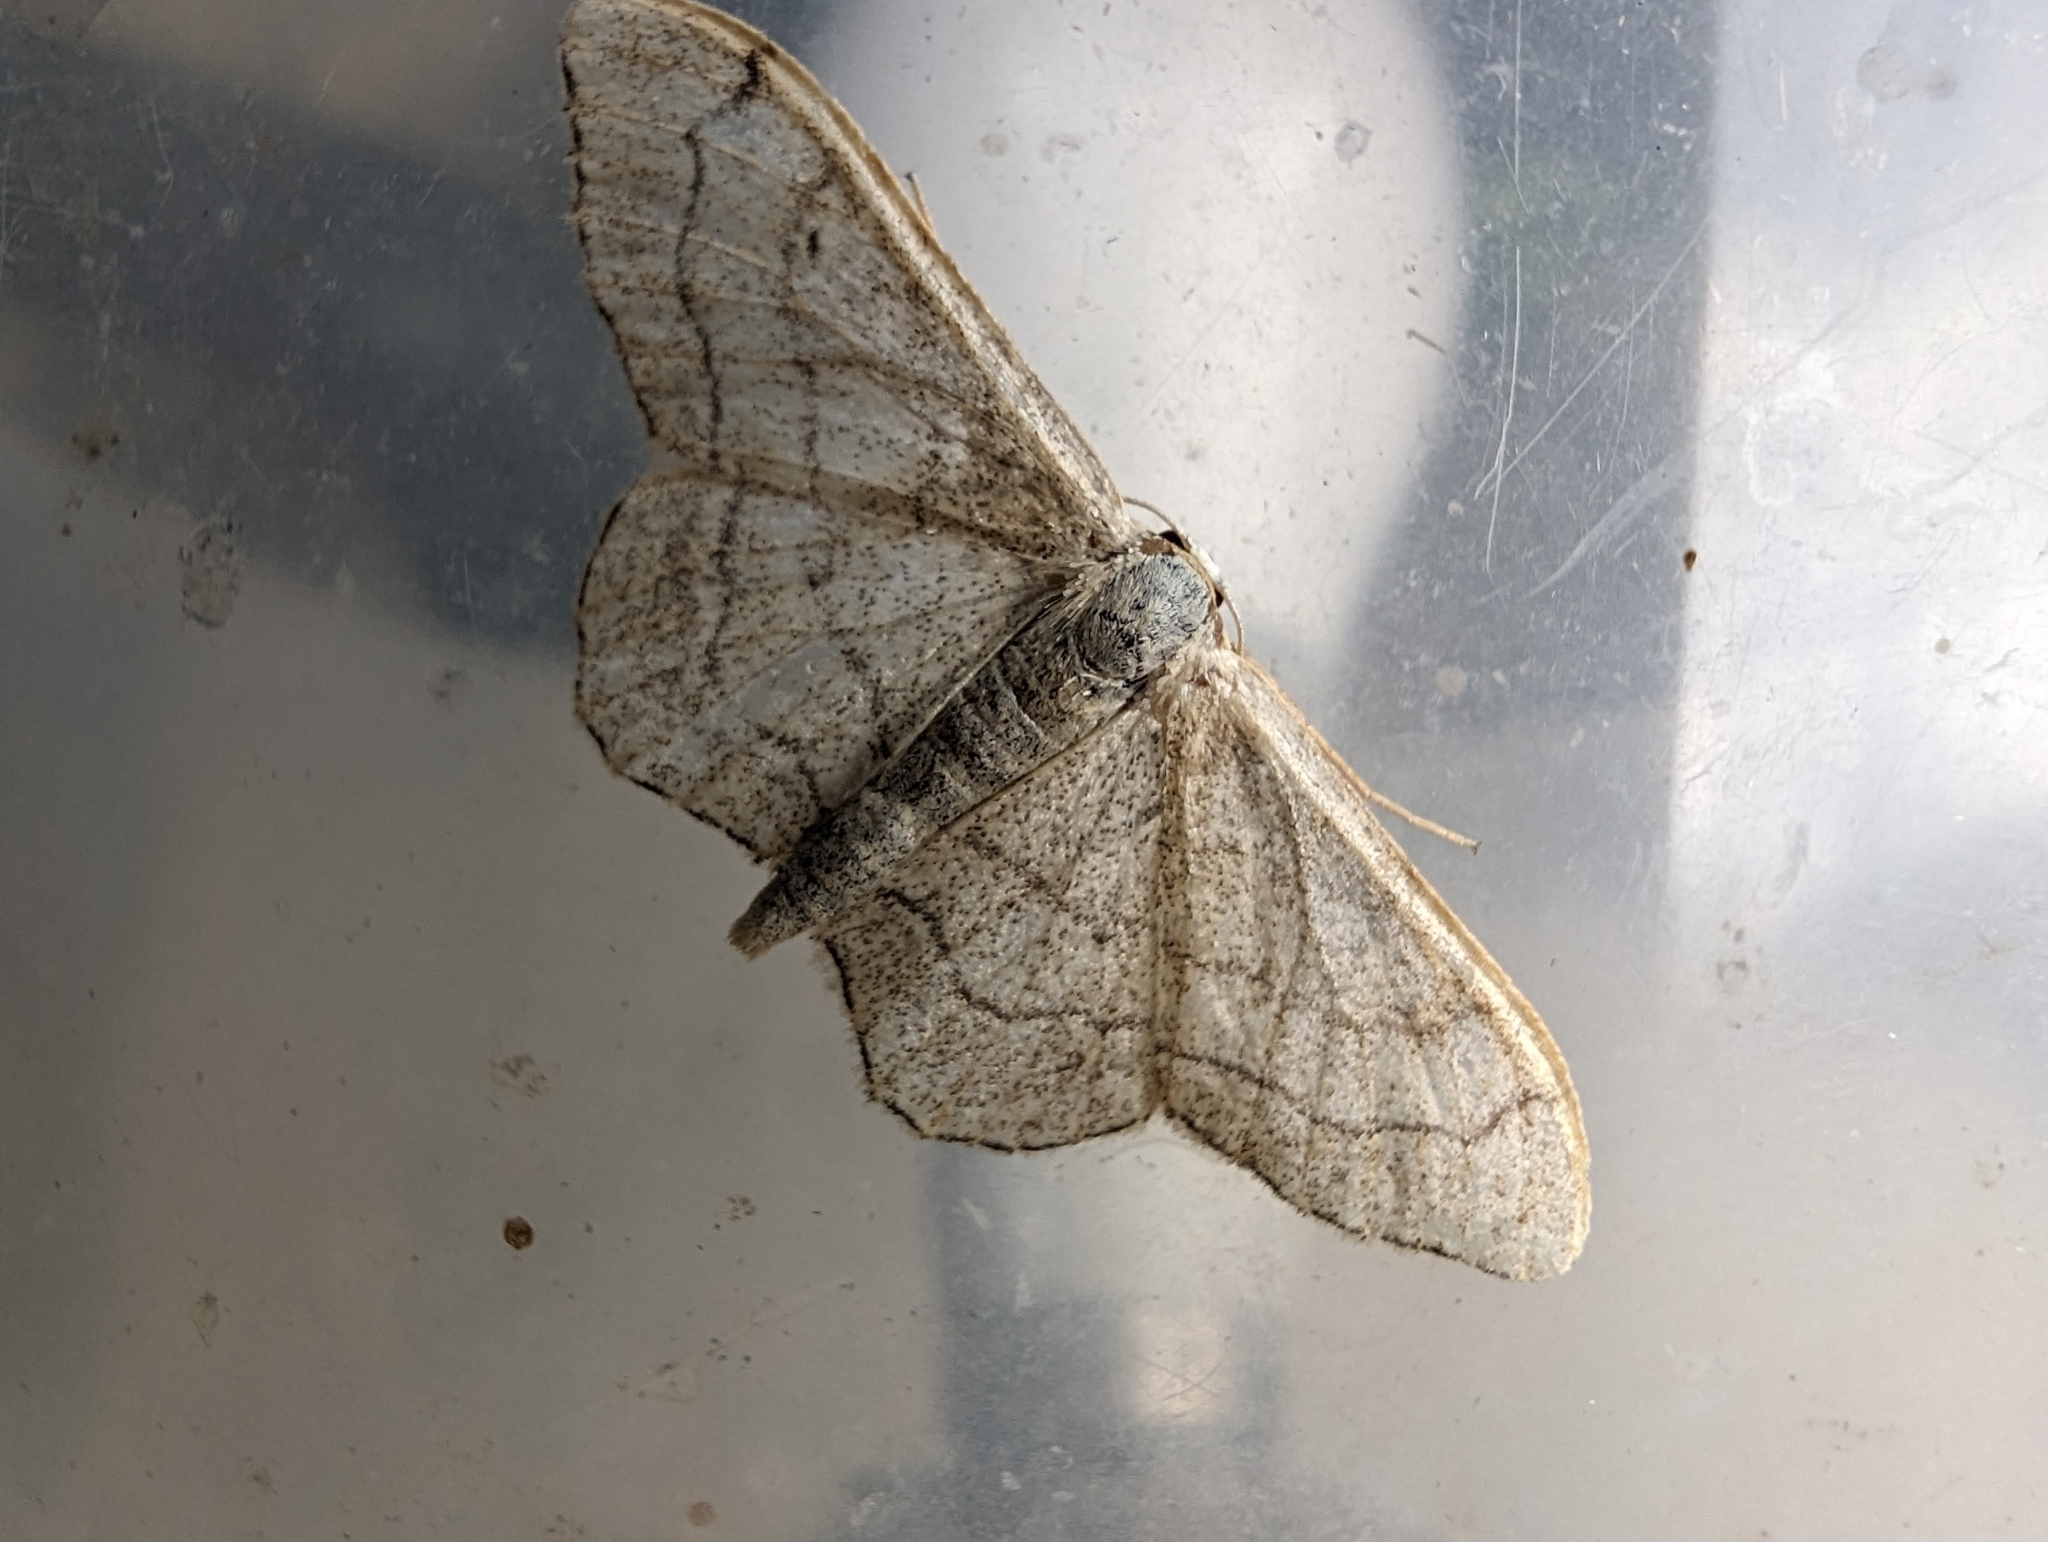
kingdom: Animalia
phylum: Arthropoda
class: Insecta
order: Lepidoptera
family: Geometridae
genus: Idaea
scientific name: Idaea aversata
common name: Riband wave
